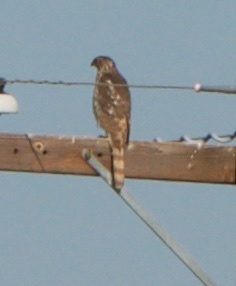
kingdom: Animalia
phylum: Chordata
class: Aves
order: Accipitriformes
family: Accipitridae
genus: Accipiter
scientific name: Accipiter cooperii
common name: Cooper's hawk
